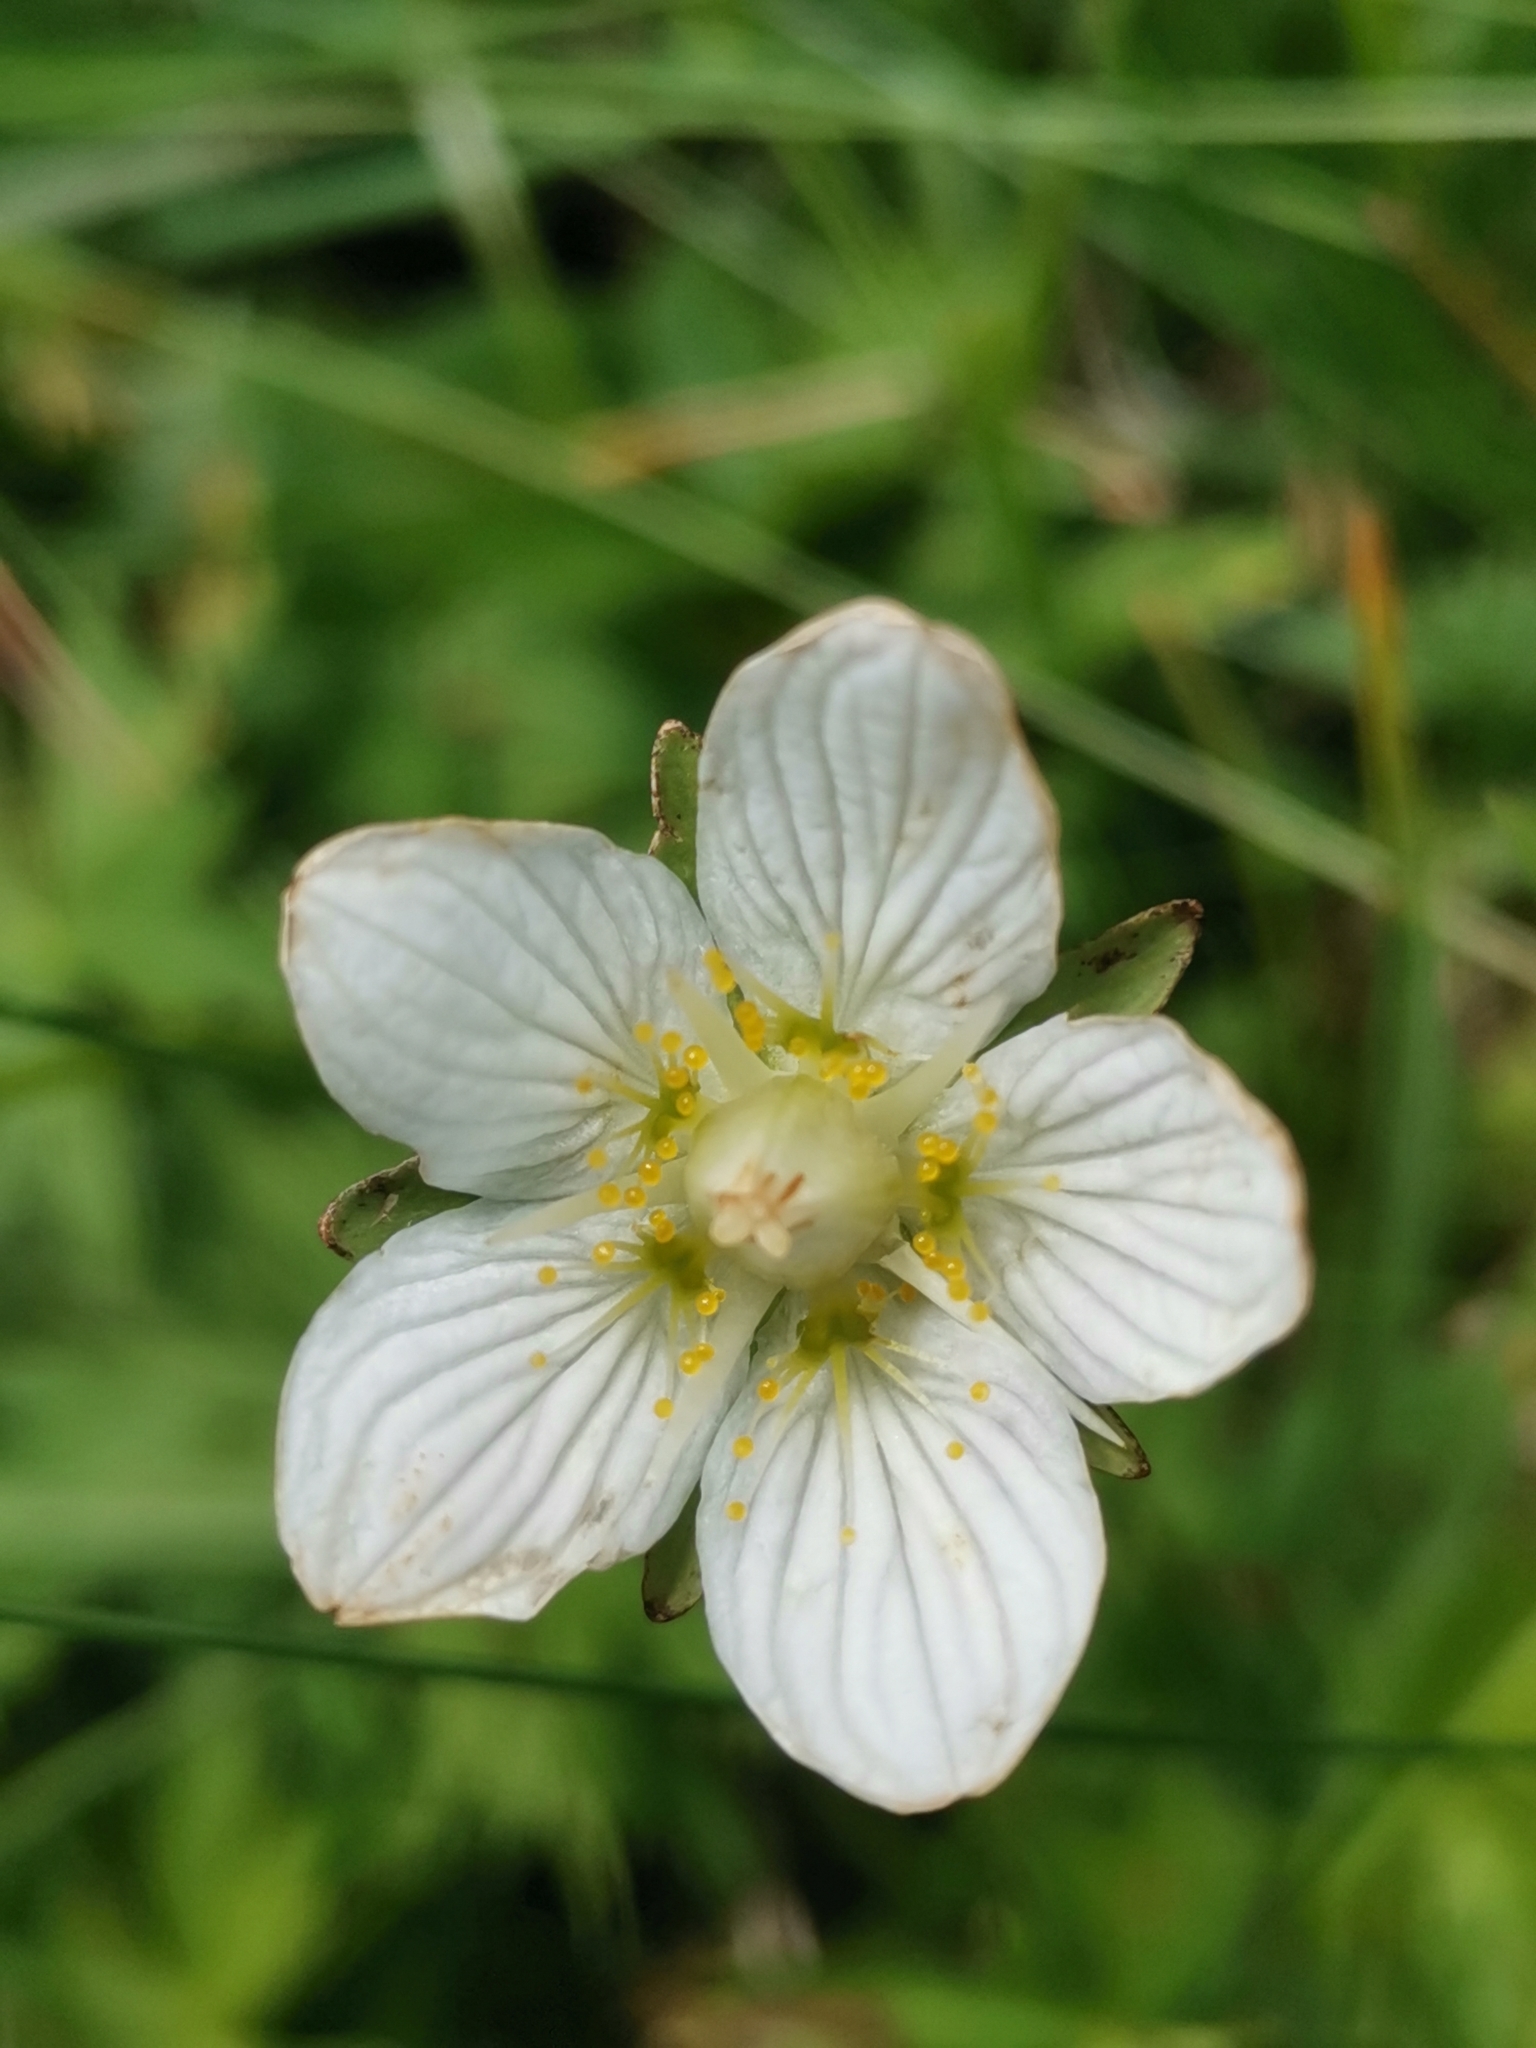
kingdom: Plantae
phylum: Tracheophyta
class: Magnoliopsida
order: Celastrales
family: Parnassiaceae
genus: Parnassia
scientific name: Parnassia palustris
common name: Grass-of-parnassus
